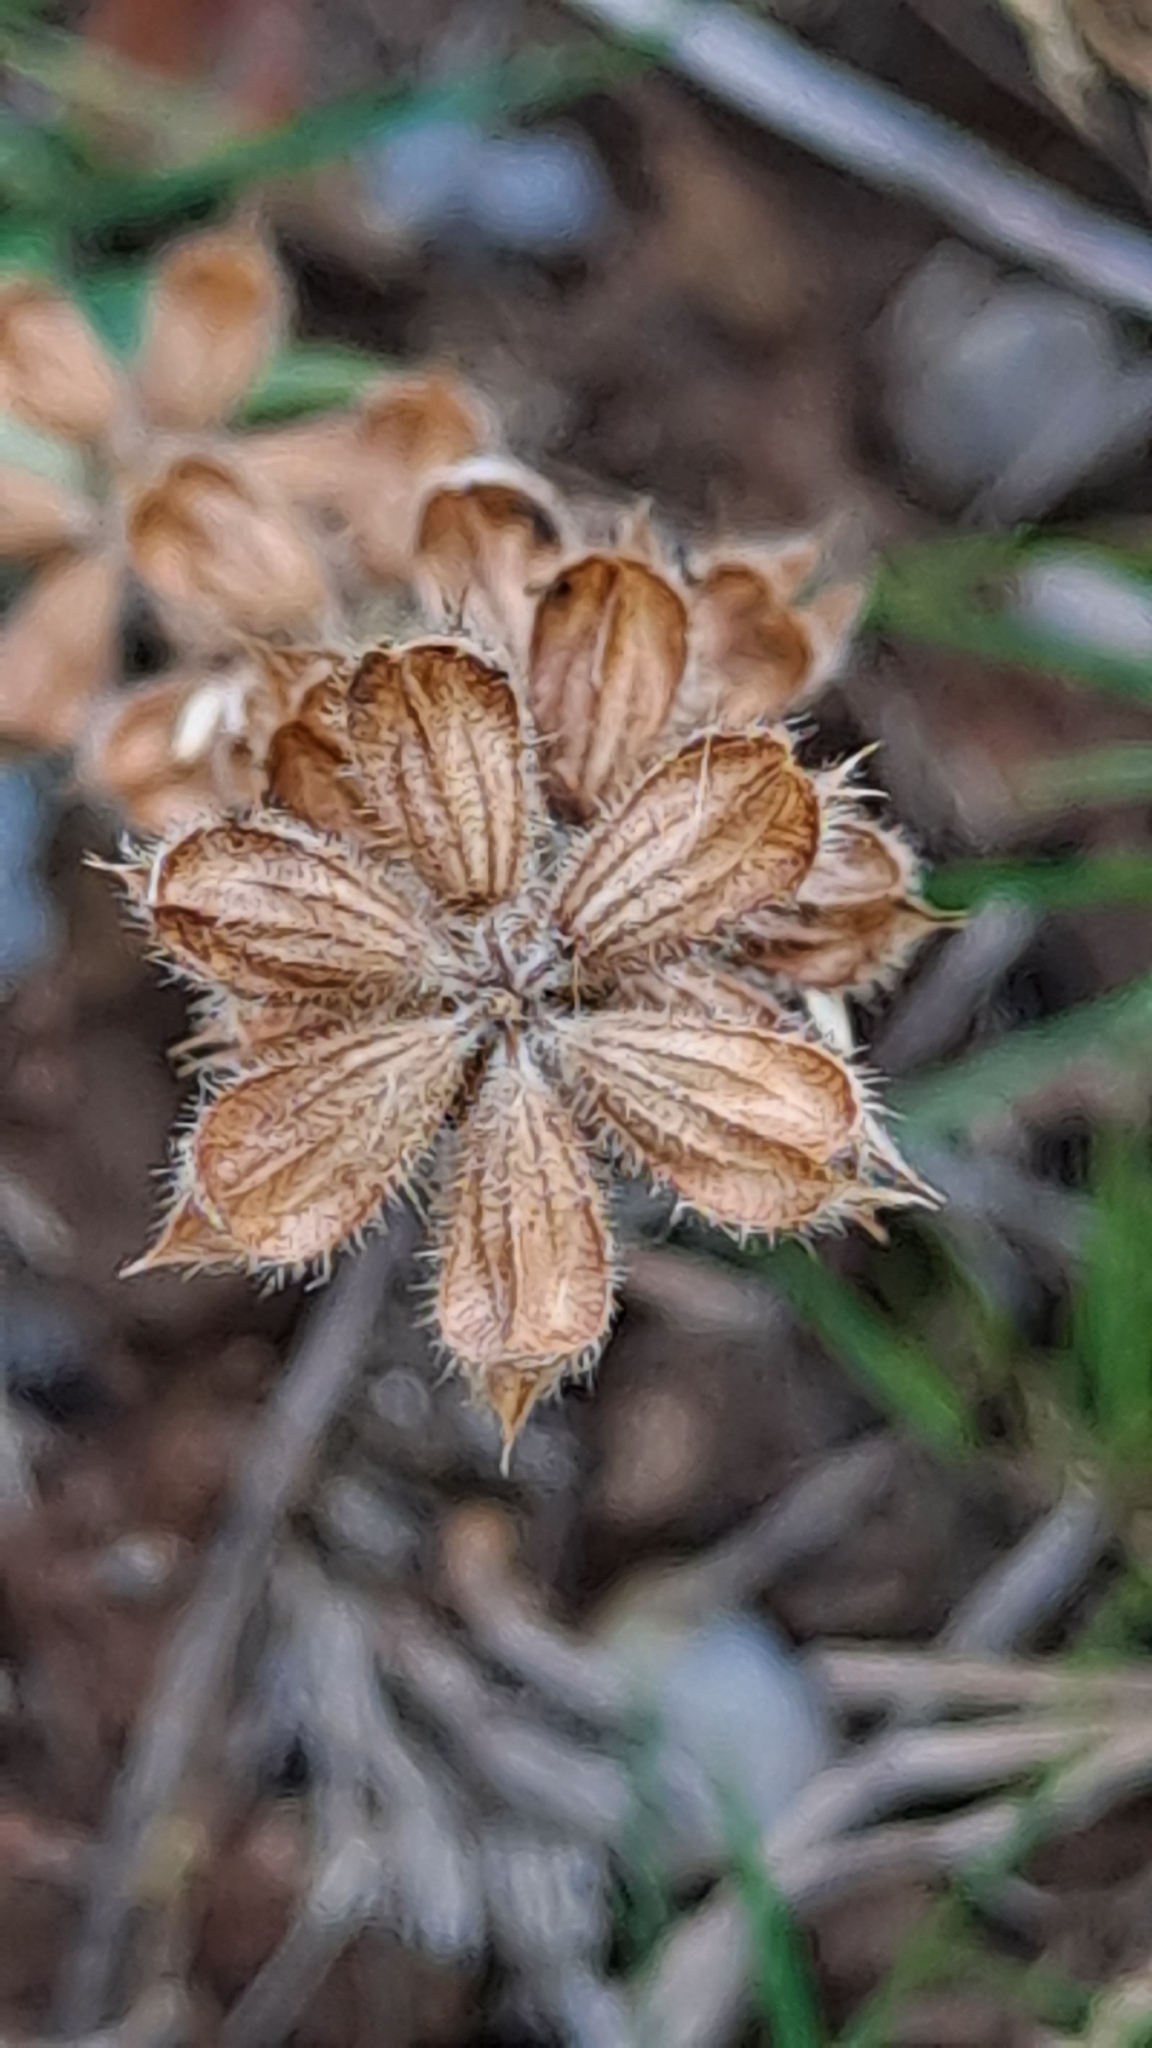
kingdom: Plantae
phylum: Tracheophyta
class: Magnoliopsida
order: Lamiales
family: Lamiaceae
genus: Salvia
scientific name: Salvia verbenaca
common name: Wild clary
